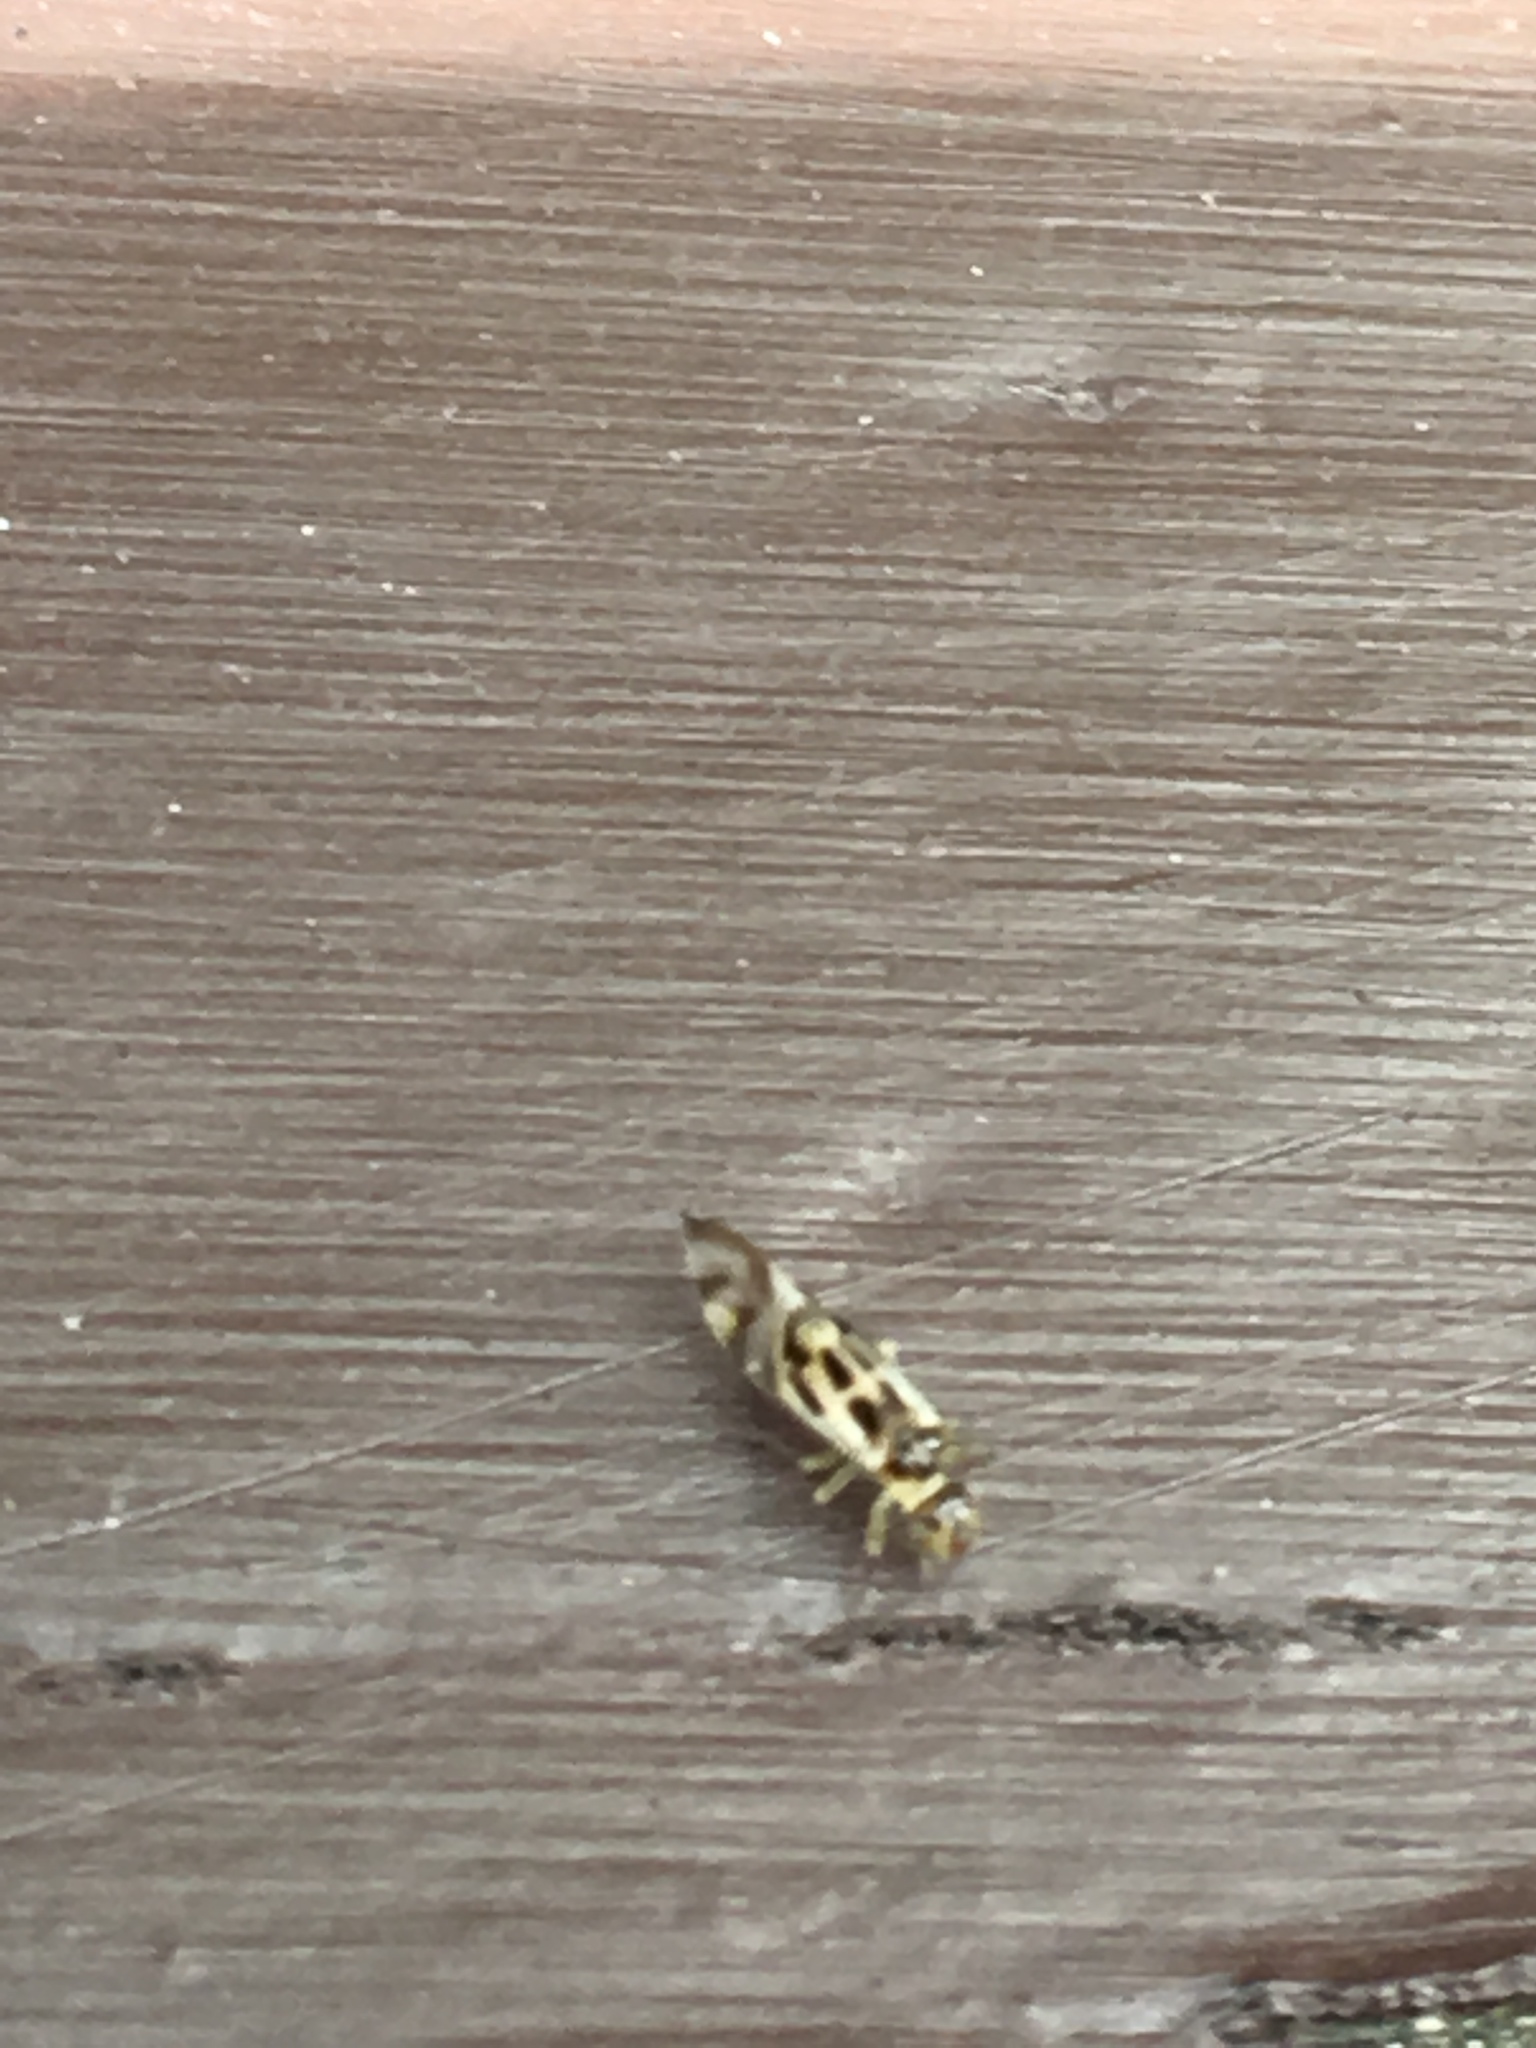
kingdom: Animalia
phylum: Arthropoda
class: Insecta
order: Psocodea
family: Stenopsocidae
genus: Graphopsocus
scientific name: Graphopsocus cruciatus
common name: Lizard bark louse
